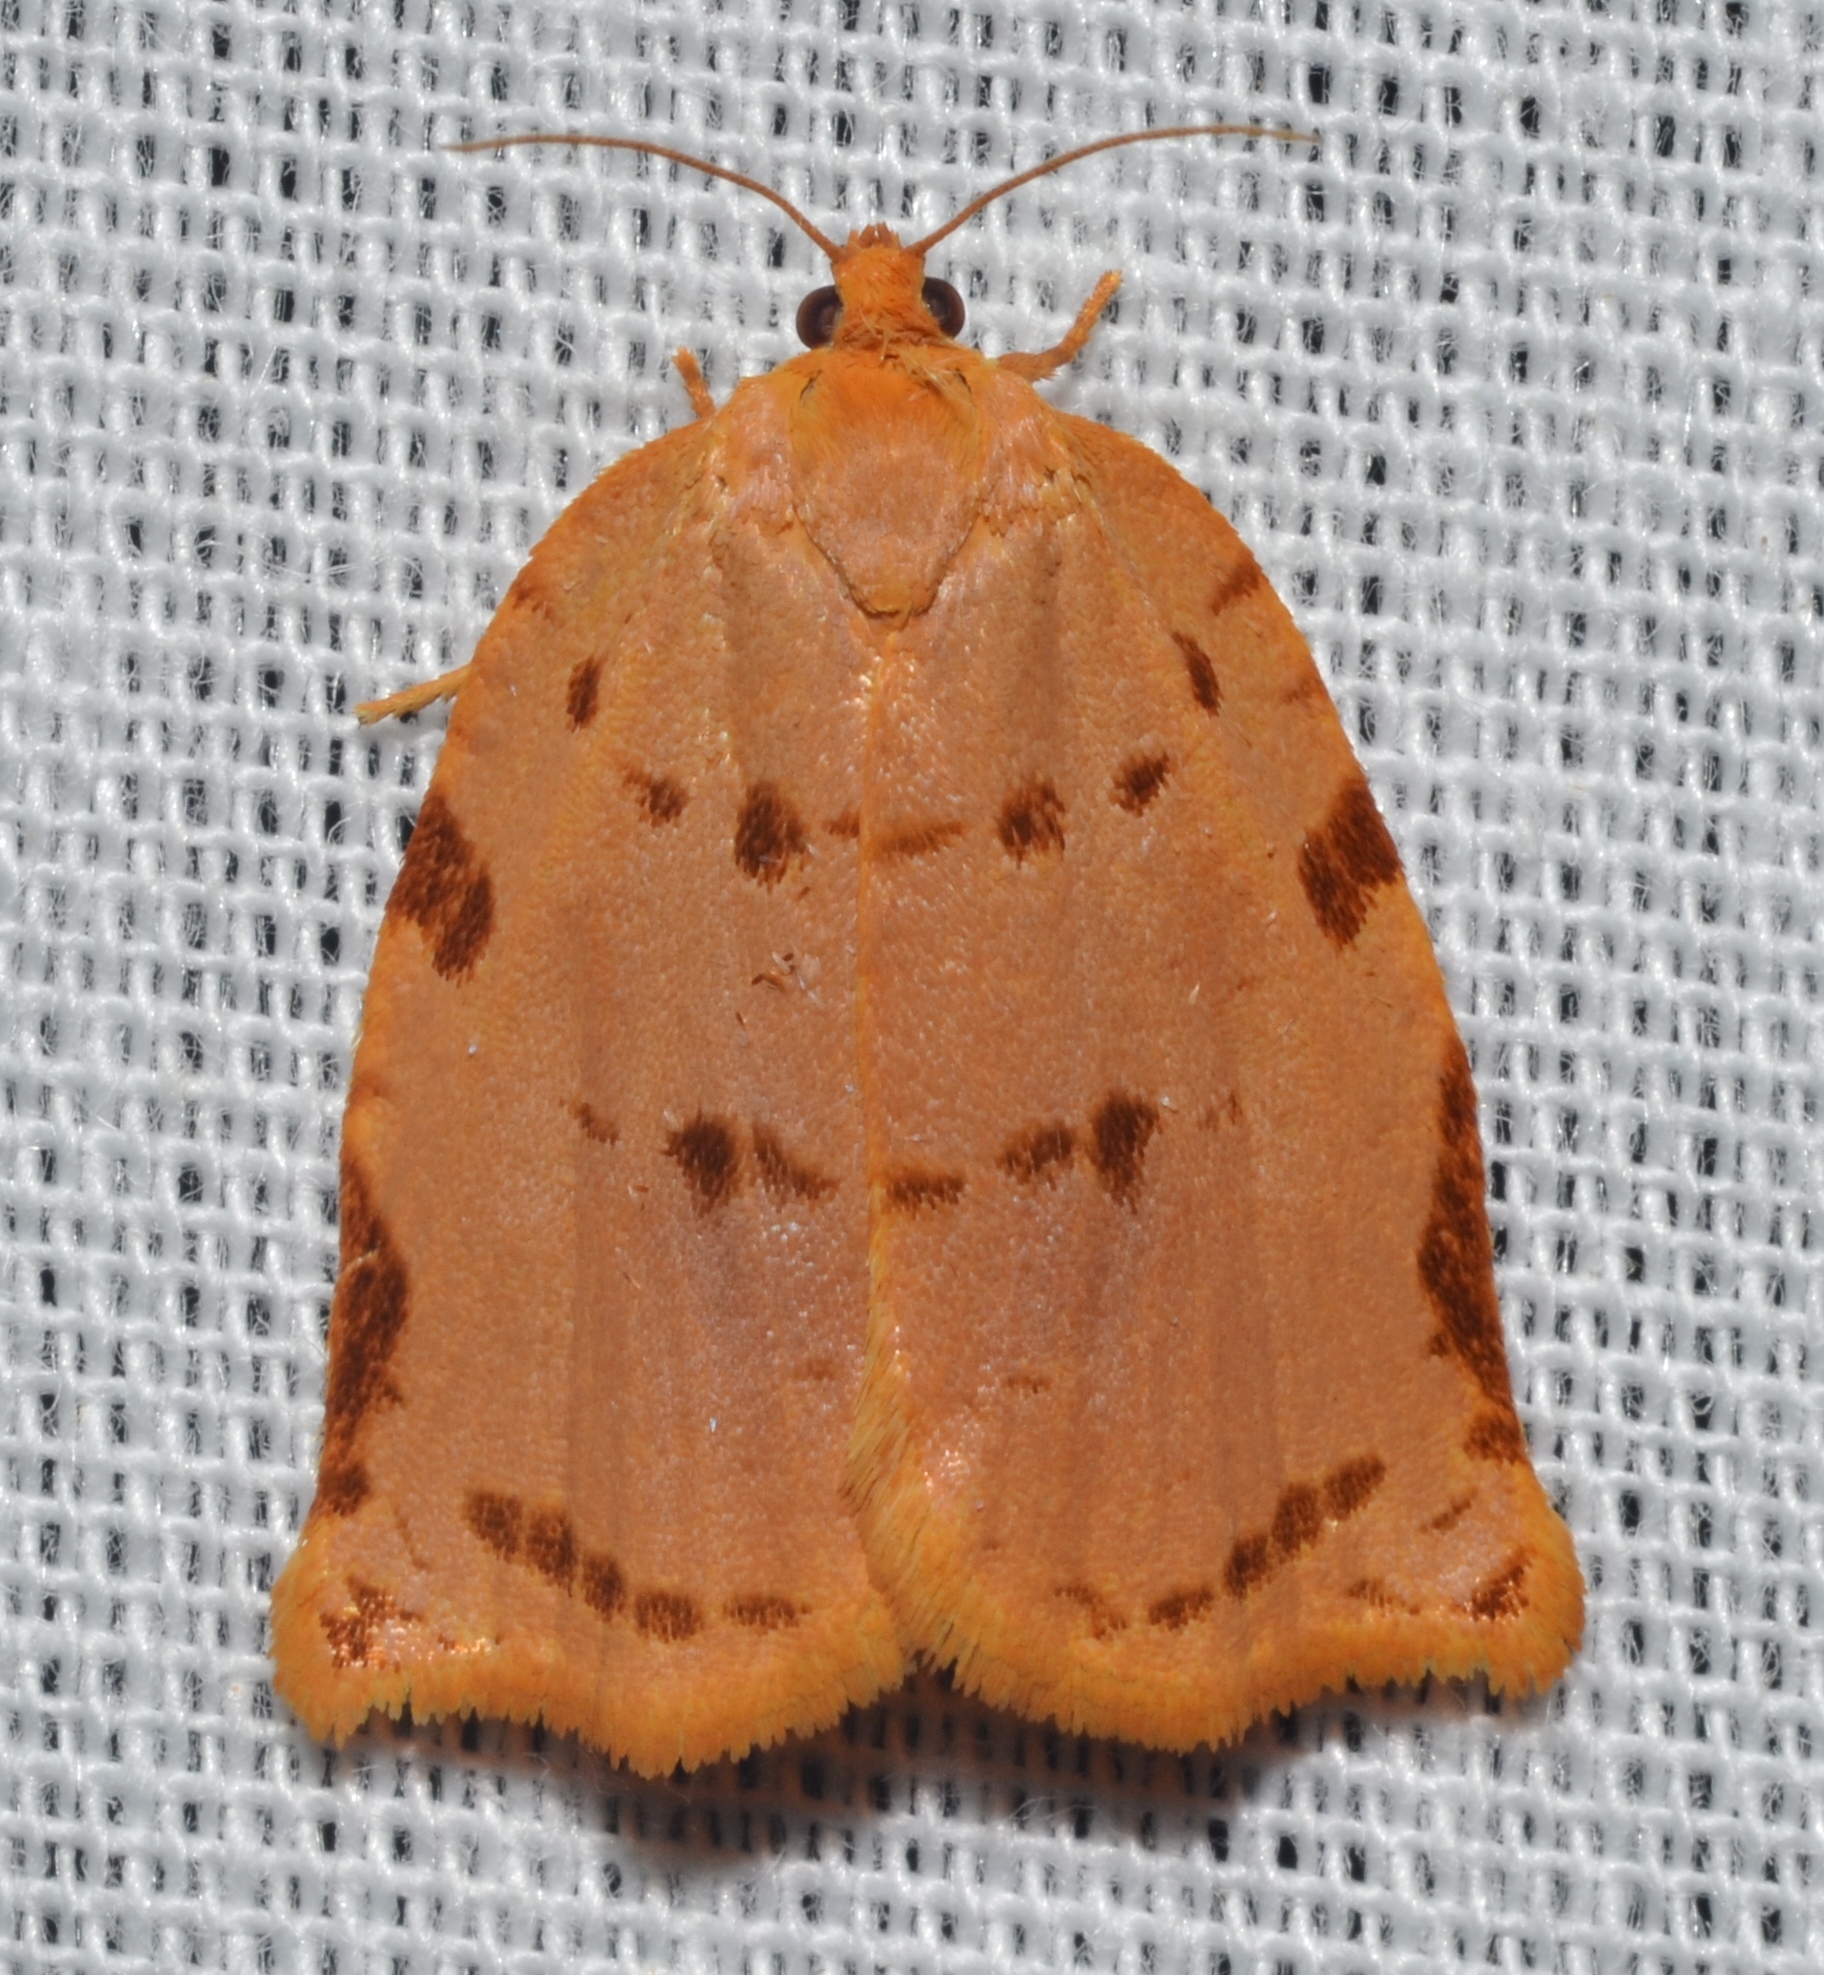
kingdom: Animalia
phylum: Arthropoda
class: Insecta
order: Lepidoptera
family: Tortricidae
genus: Archips
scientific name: Archips rileyana
